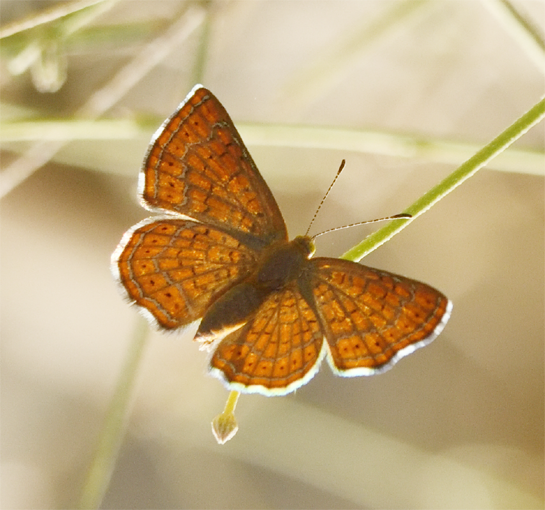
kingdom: Animalia
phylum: Arthropoda
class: Insecta
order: Lepidoptera
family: Lycaenidae
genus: Emesis
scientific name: Emesis wrighti
